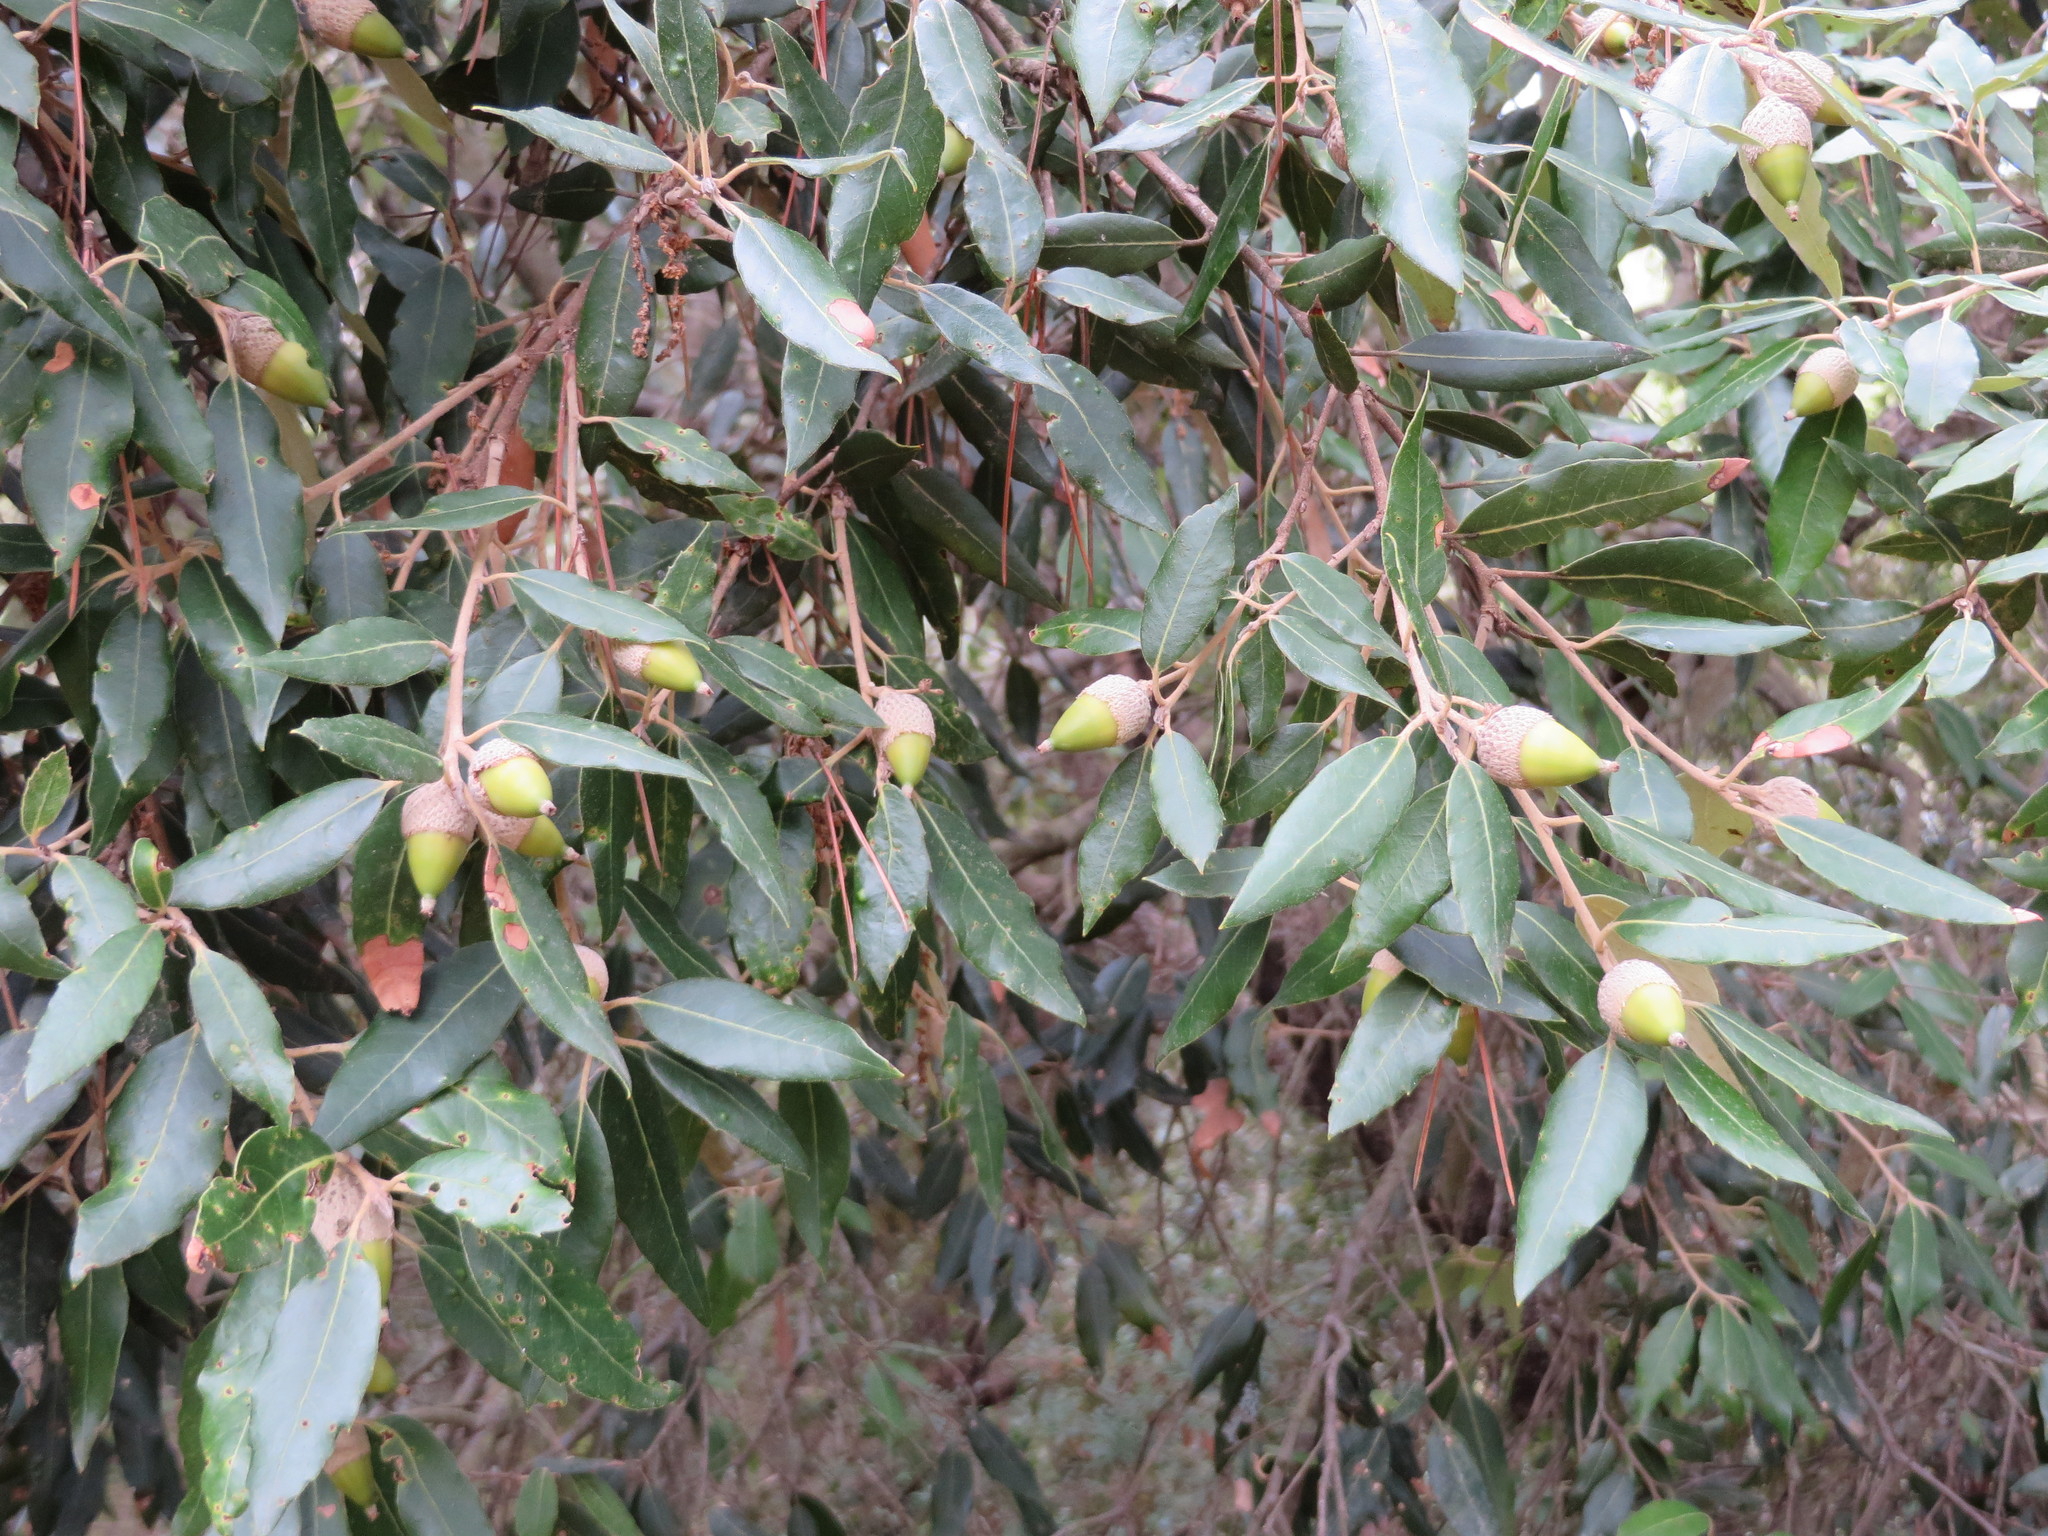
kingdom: Plantae
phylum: Tracheophyta
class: Magnoliopsida
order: Fagales
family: Fagaceae
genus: Quercus
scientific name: Quercus ilex
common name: Evergreen oak
